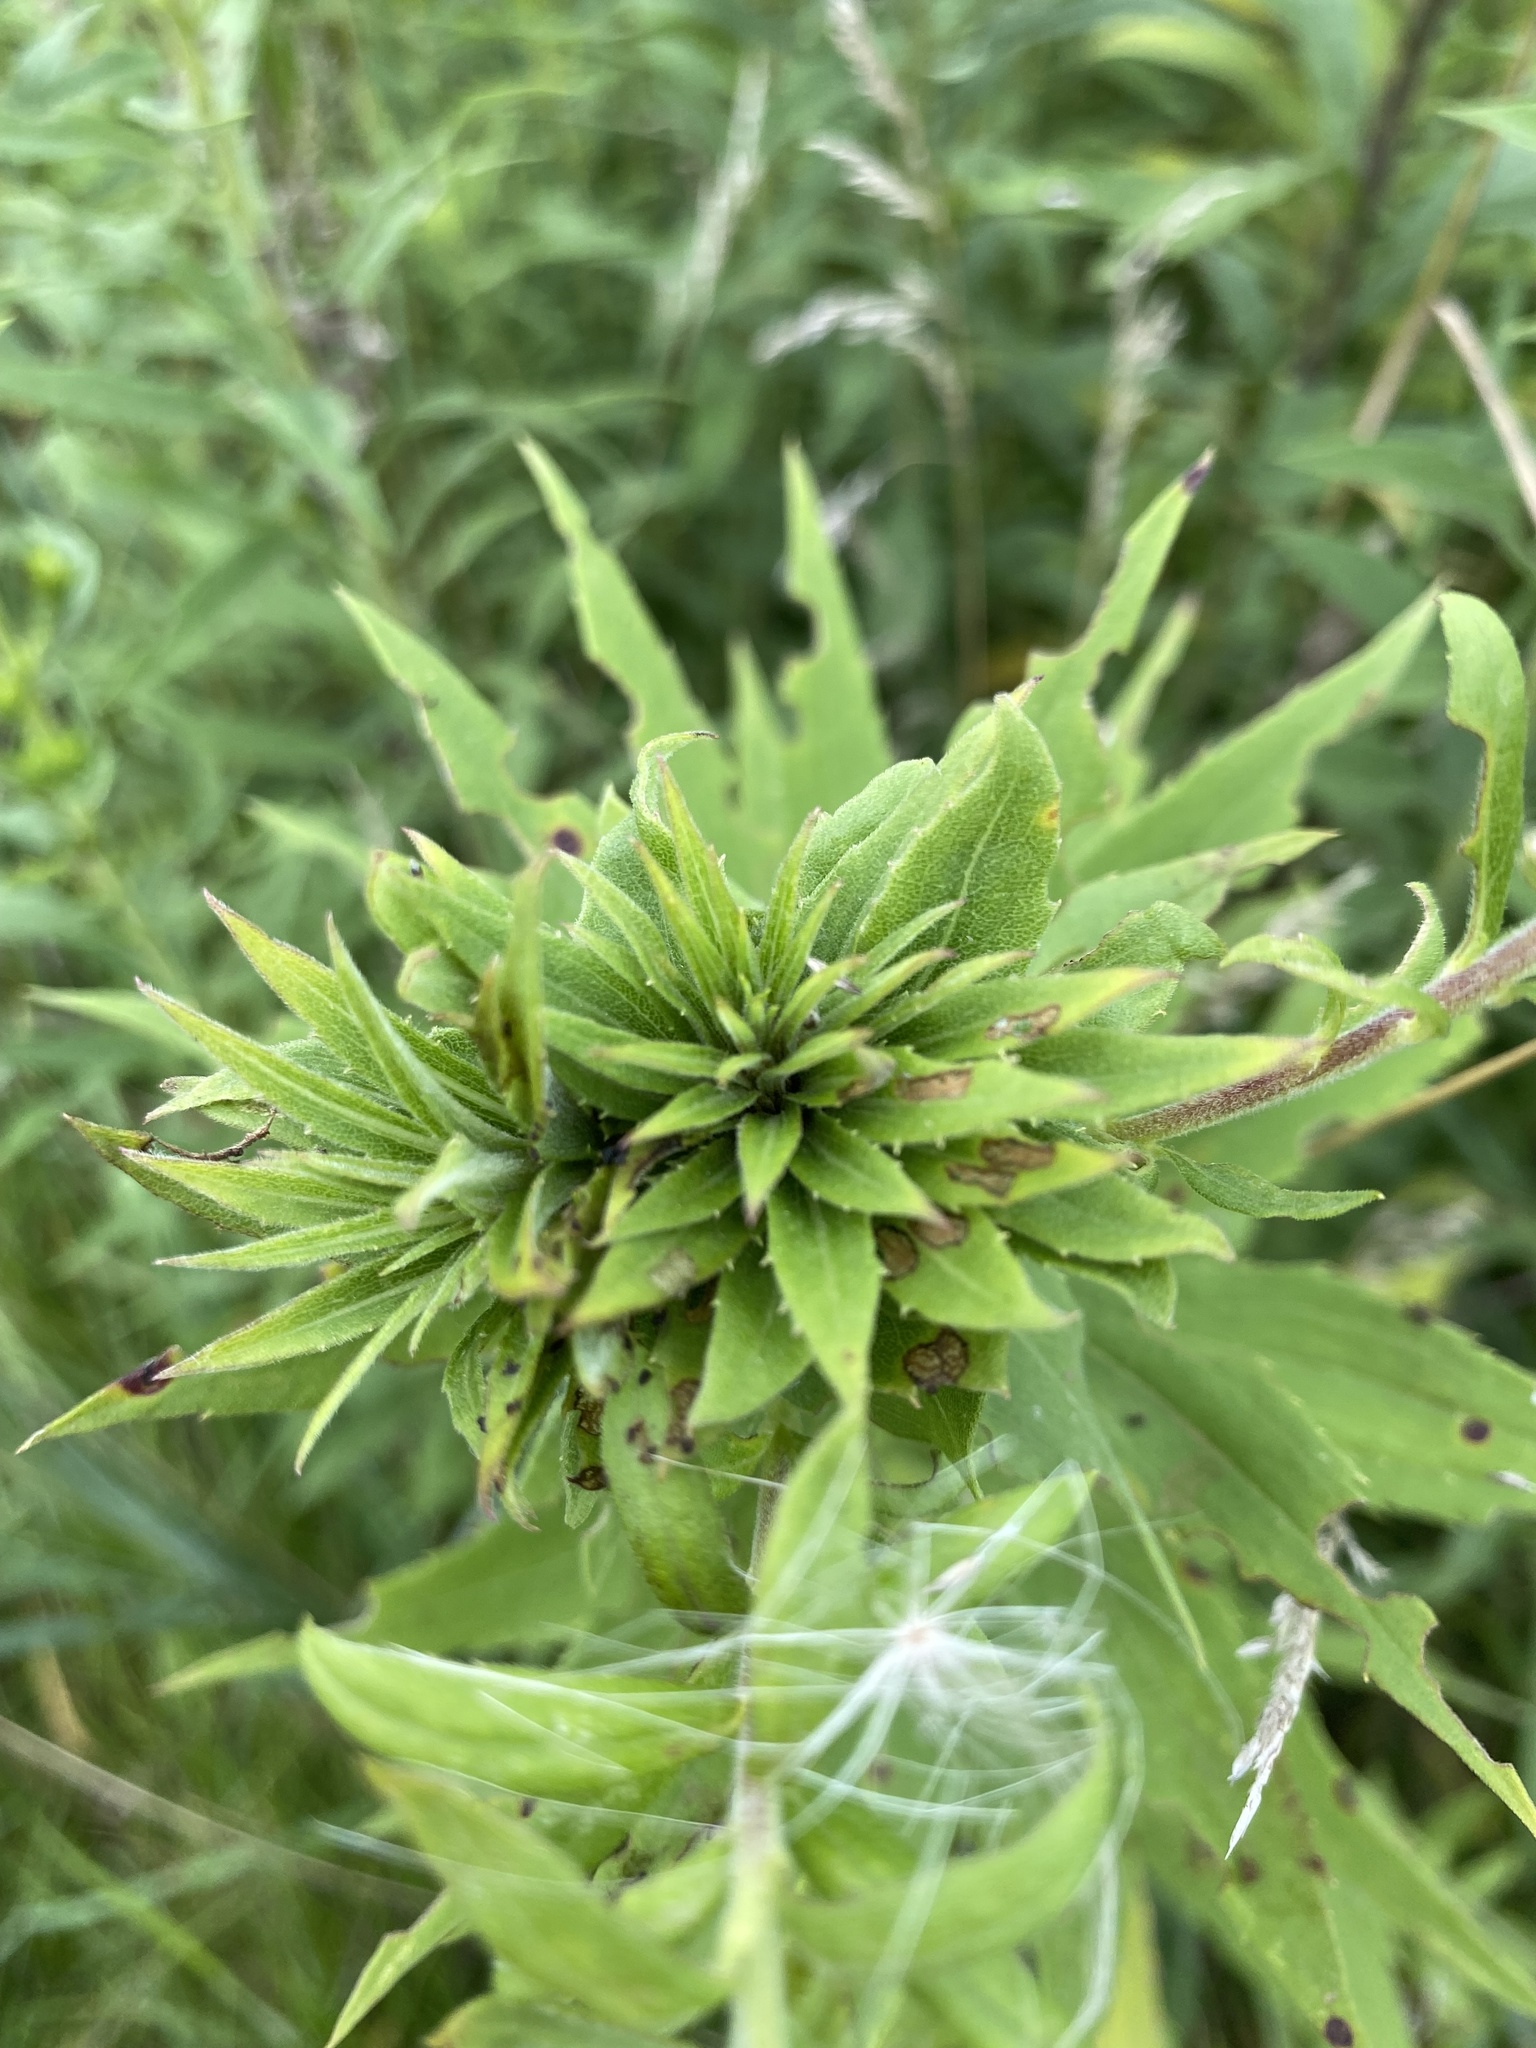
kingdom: Animalia
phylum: Arthropoda
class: Insecta
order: Diptera
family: Cecidomyiidae
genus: Rhopalomyia
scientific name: Rhopalomyia solidaginis
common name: Goldenrod bunch gall midge
